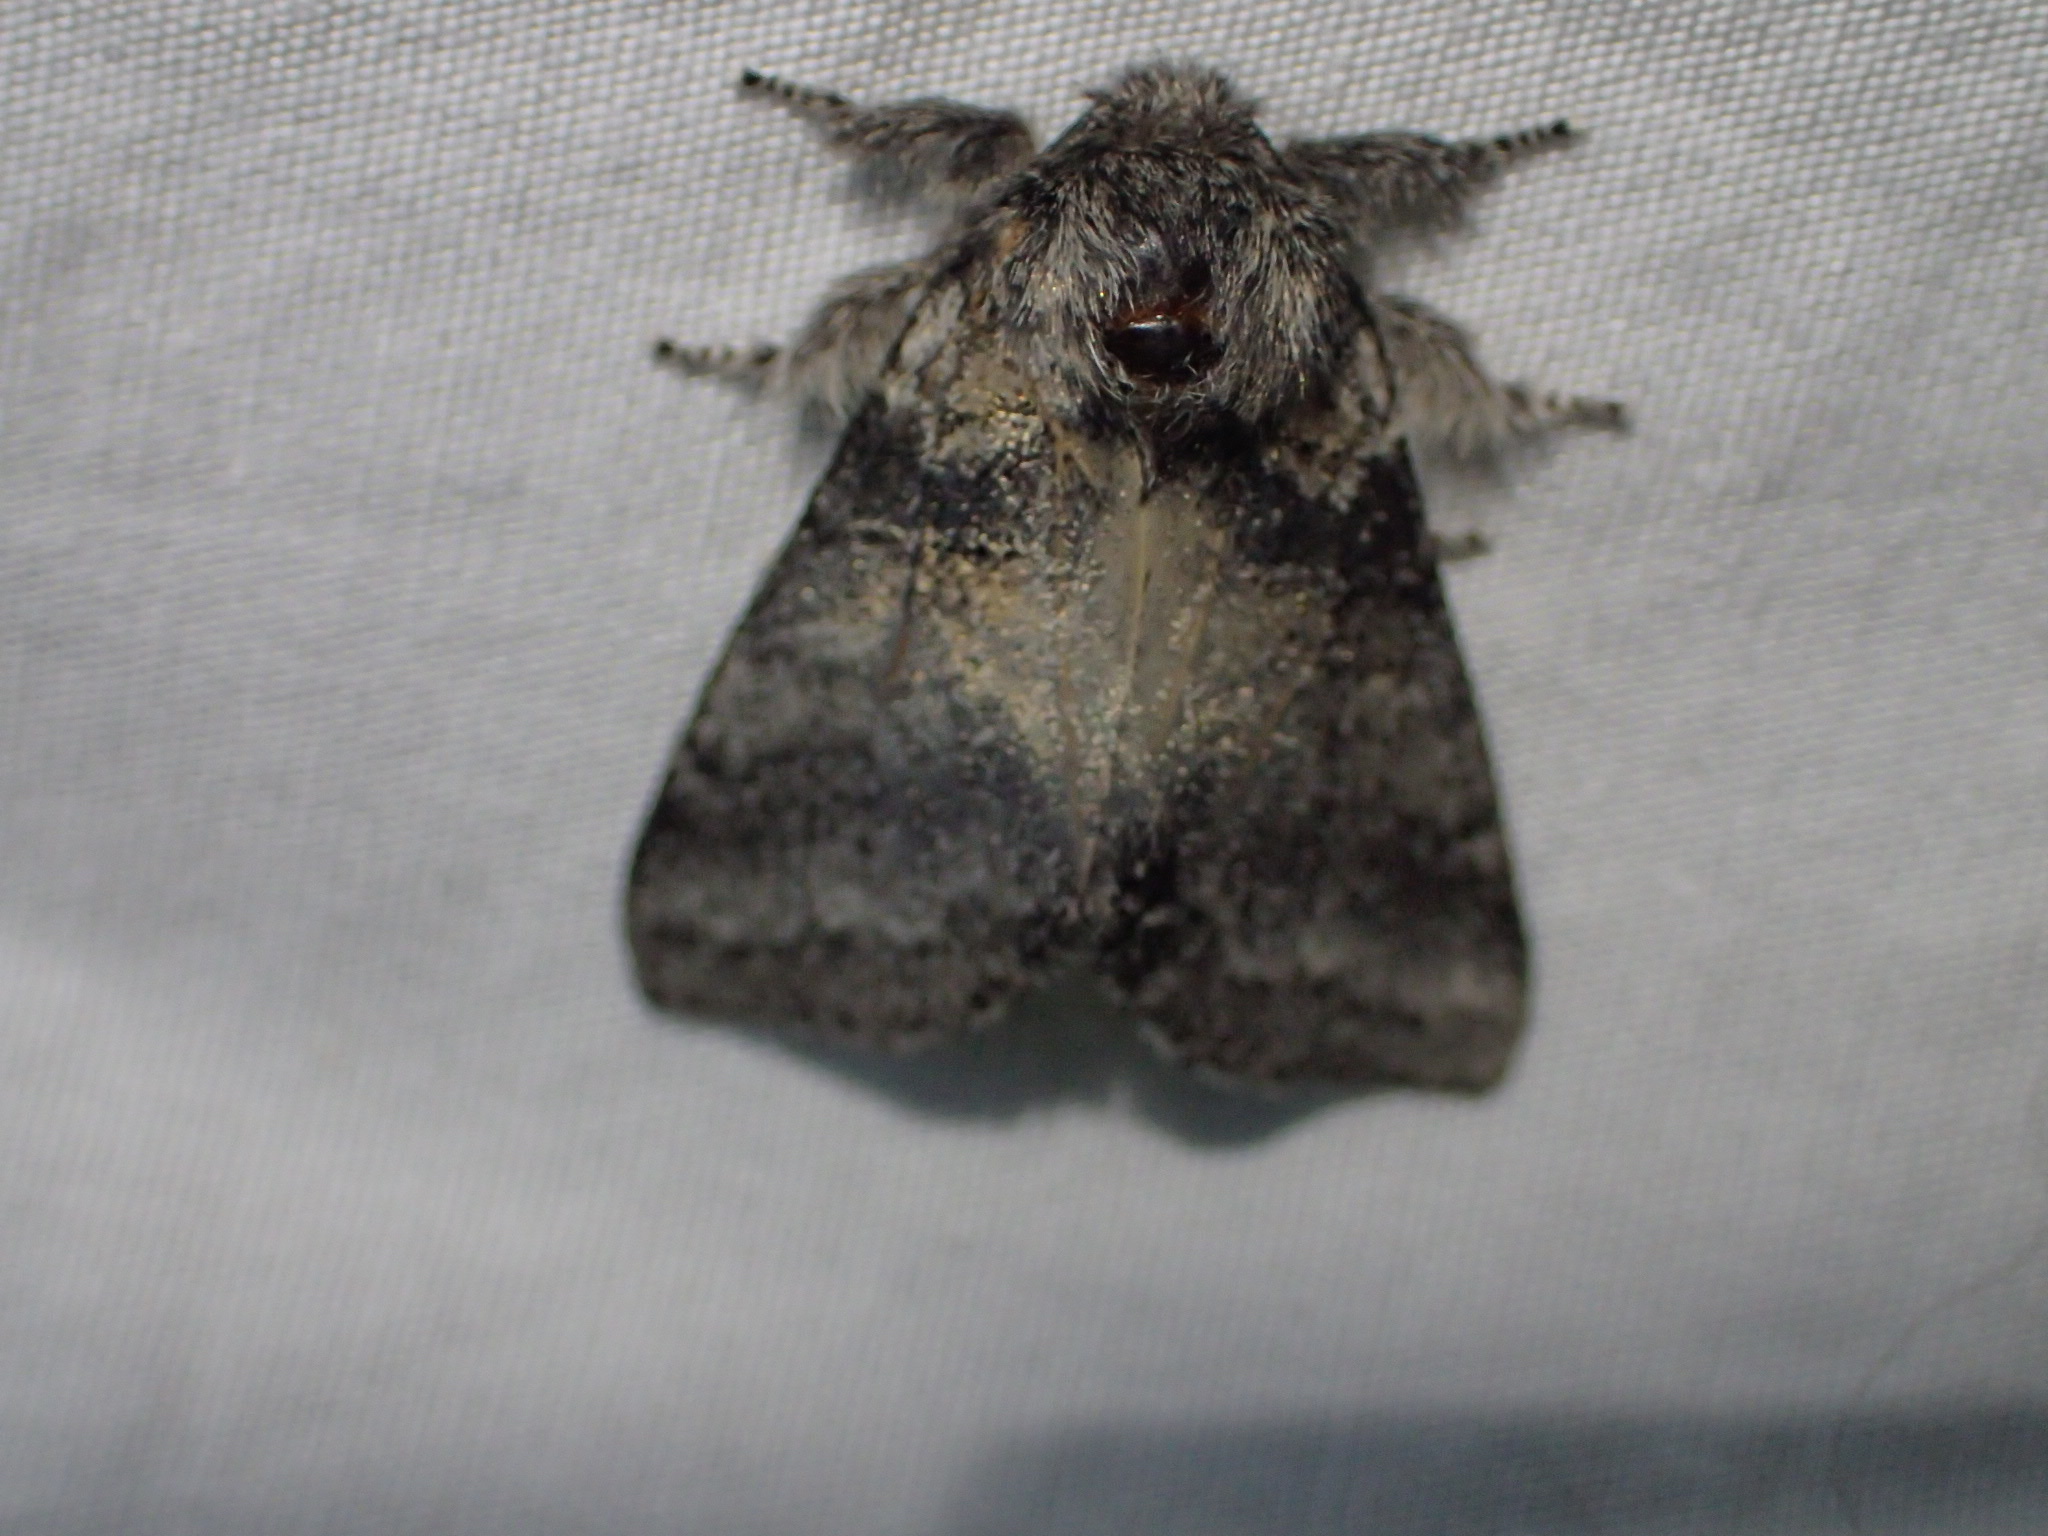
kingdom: Animalia
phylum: Arthropoda
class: Insecta
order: Lepidoptera
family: Notodontidae
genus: Gluphisia
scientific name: Gluphisia septentrionis
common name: Common gluphisia
